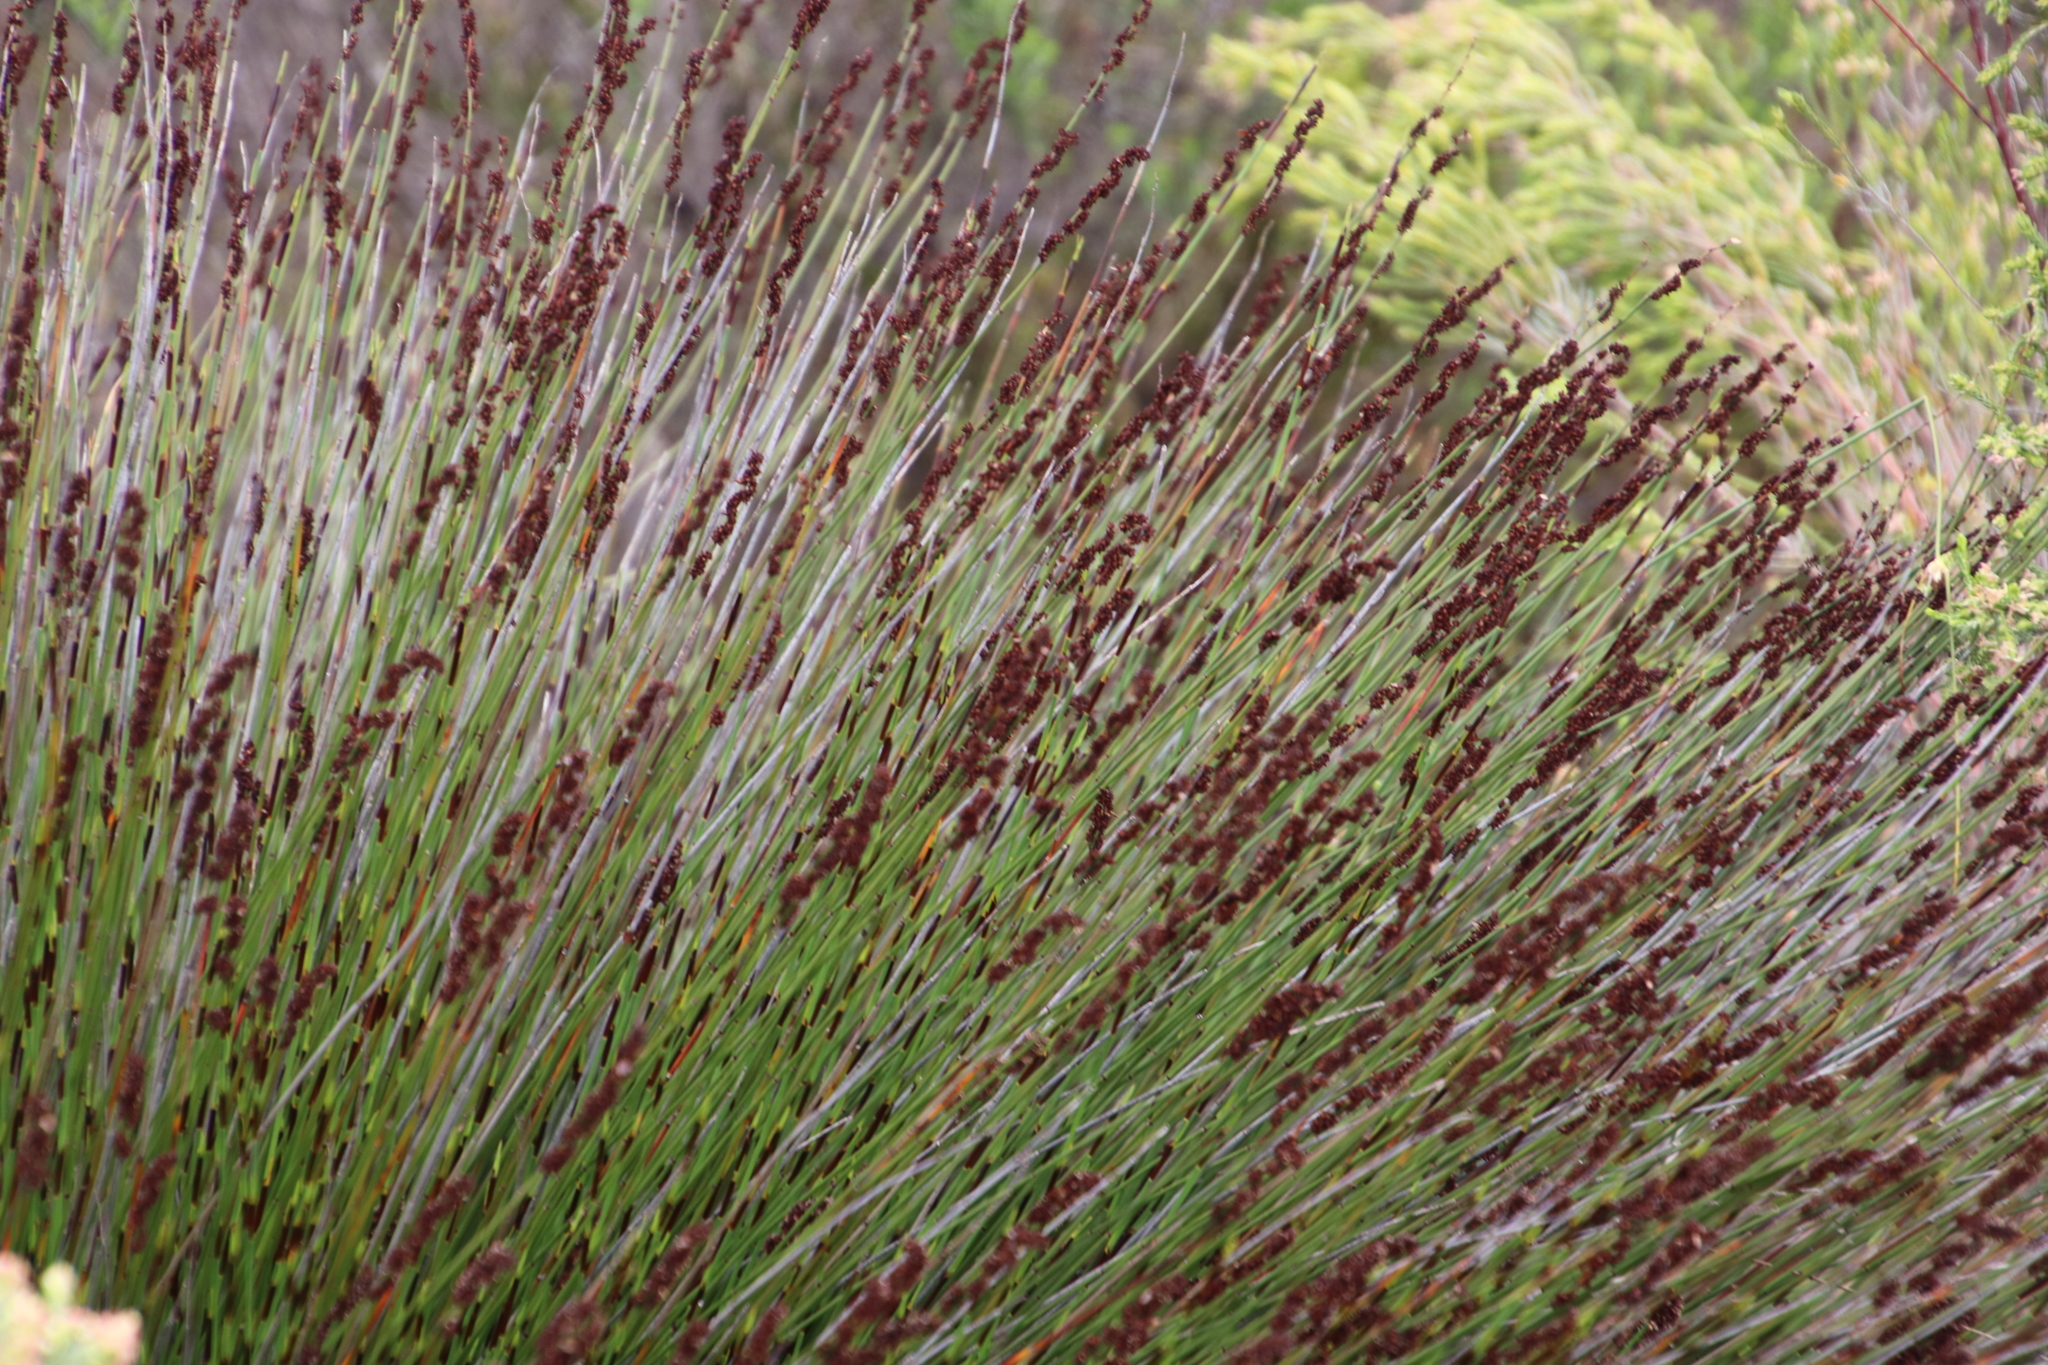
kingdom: Plantae
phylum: Tracheophyta
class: Liliopsida
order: Poales
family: Restionaceae
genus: Elegia
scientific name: Elegia tectorum
